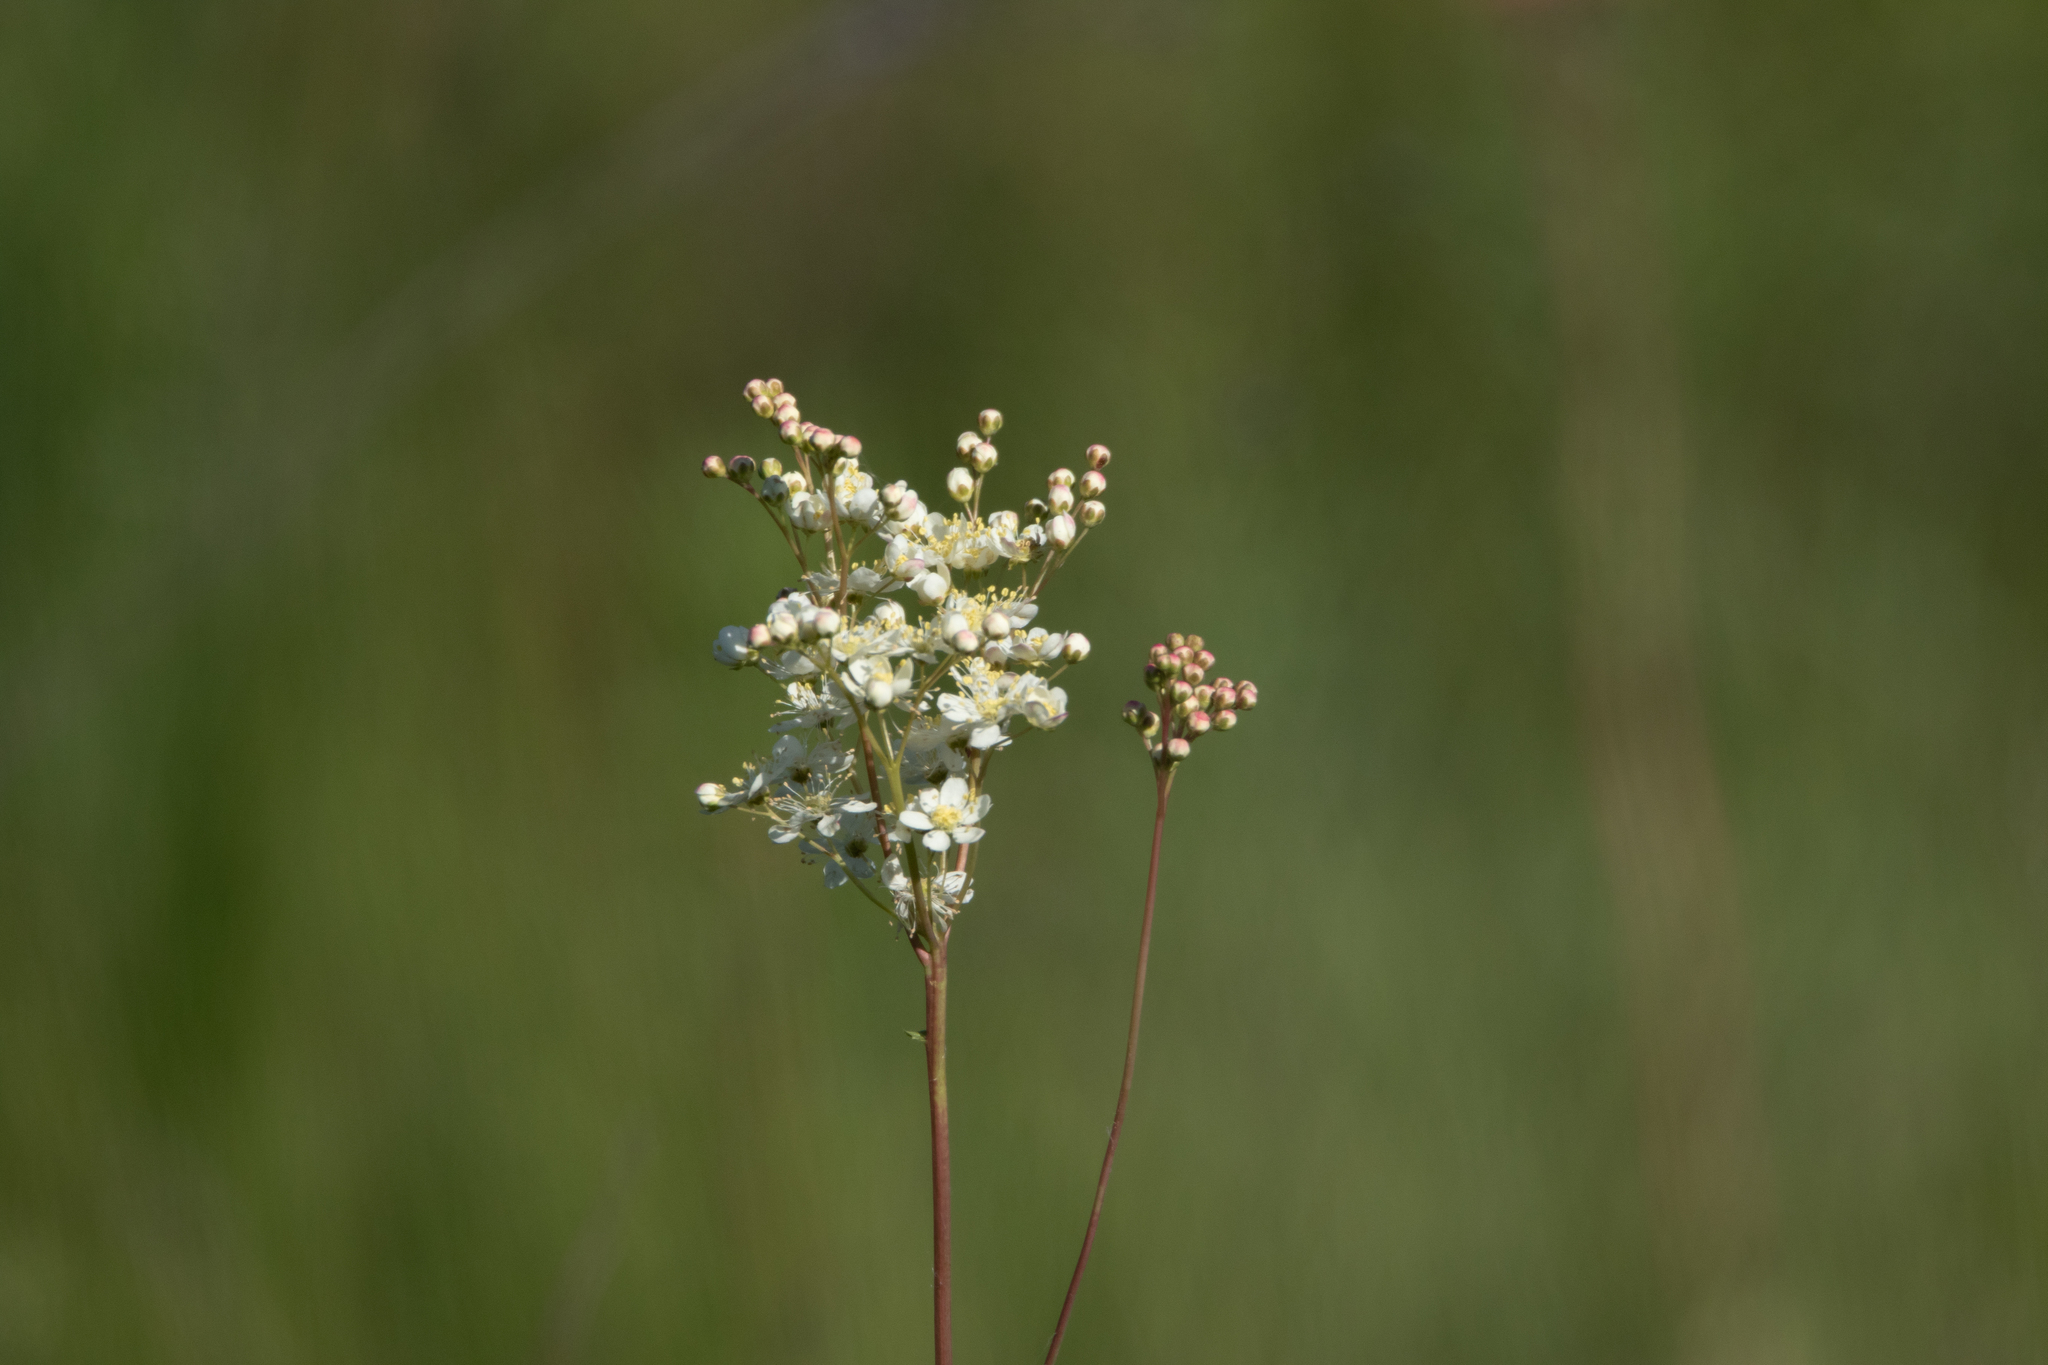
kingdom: Plantae
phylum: Tracheophyta
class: Magnoliopsida
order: Rosales
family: Rosaceae
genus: Filipendula
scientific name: Filipendula vulgaris
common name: Dropwort
